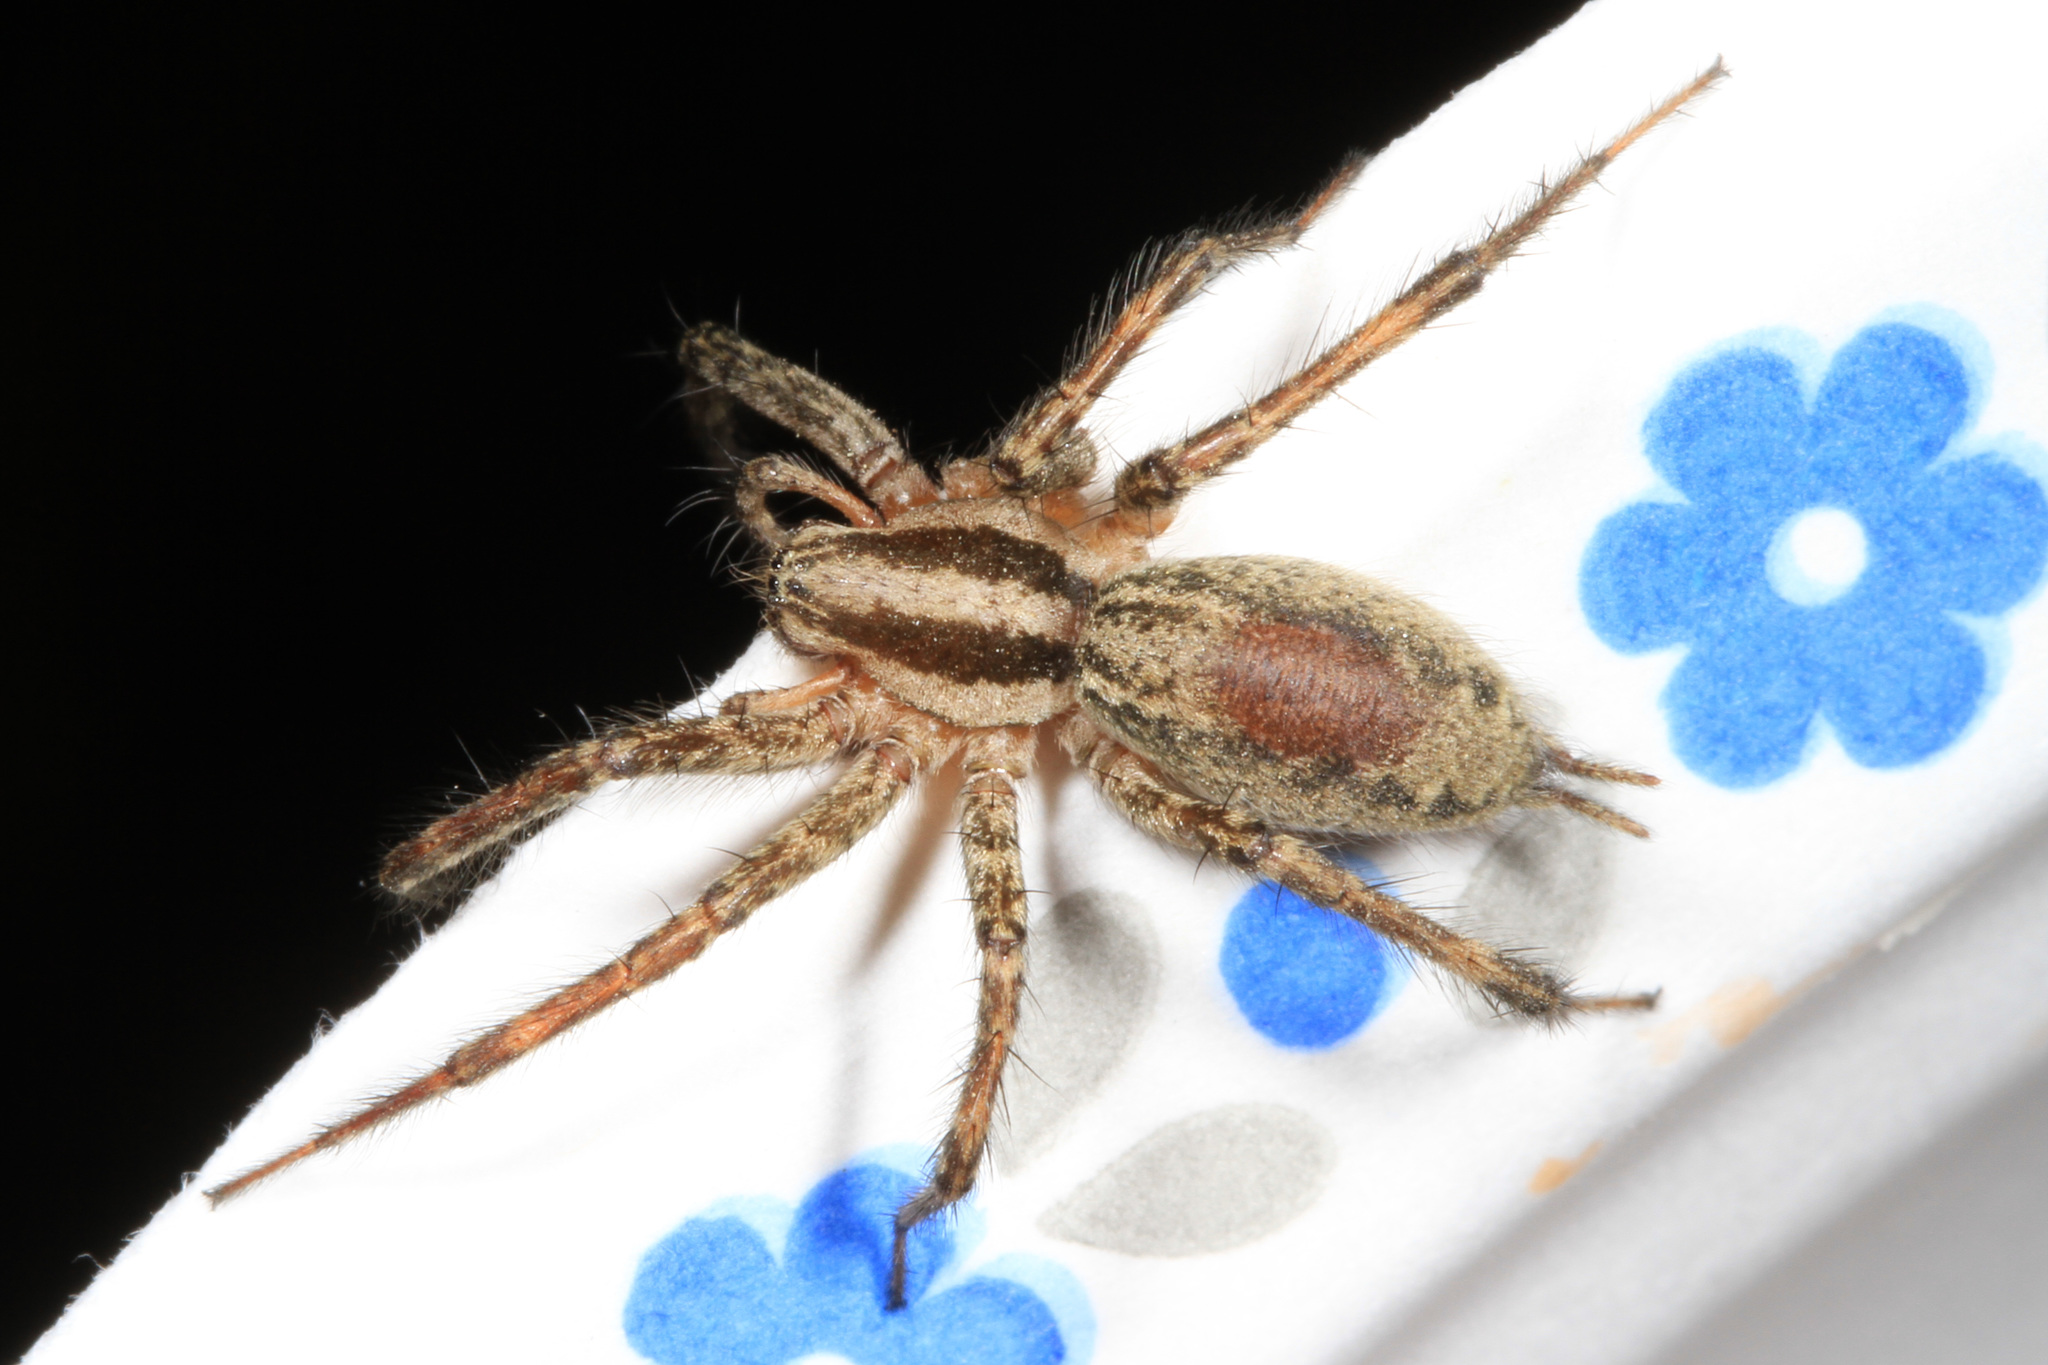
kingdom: Animalia
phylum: Arthropoda
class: Arachnida
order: Araneae
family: Agelenidae
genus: Agelenopsis
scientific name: Agelenopsis
